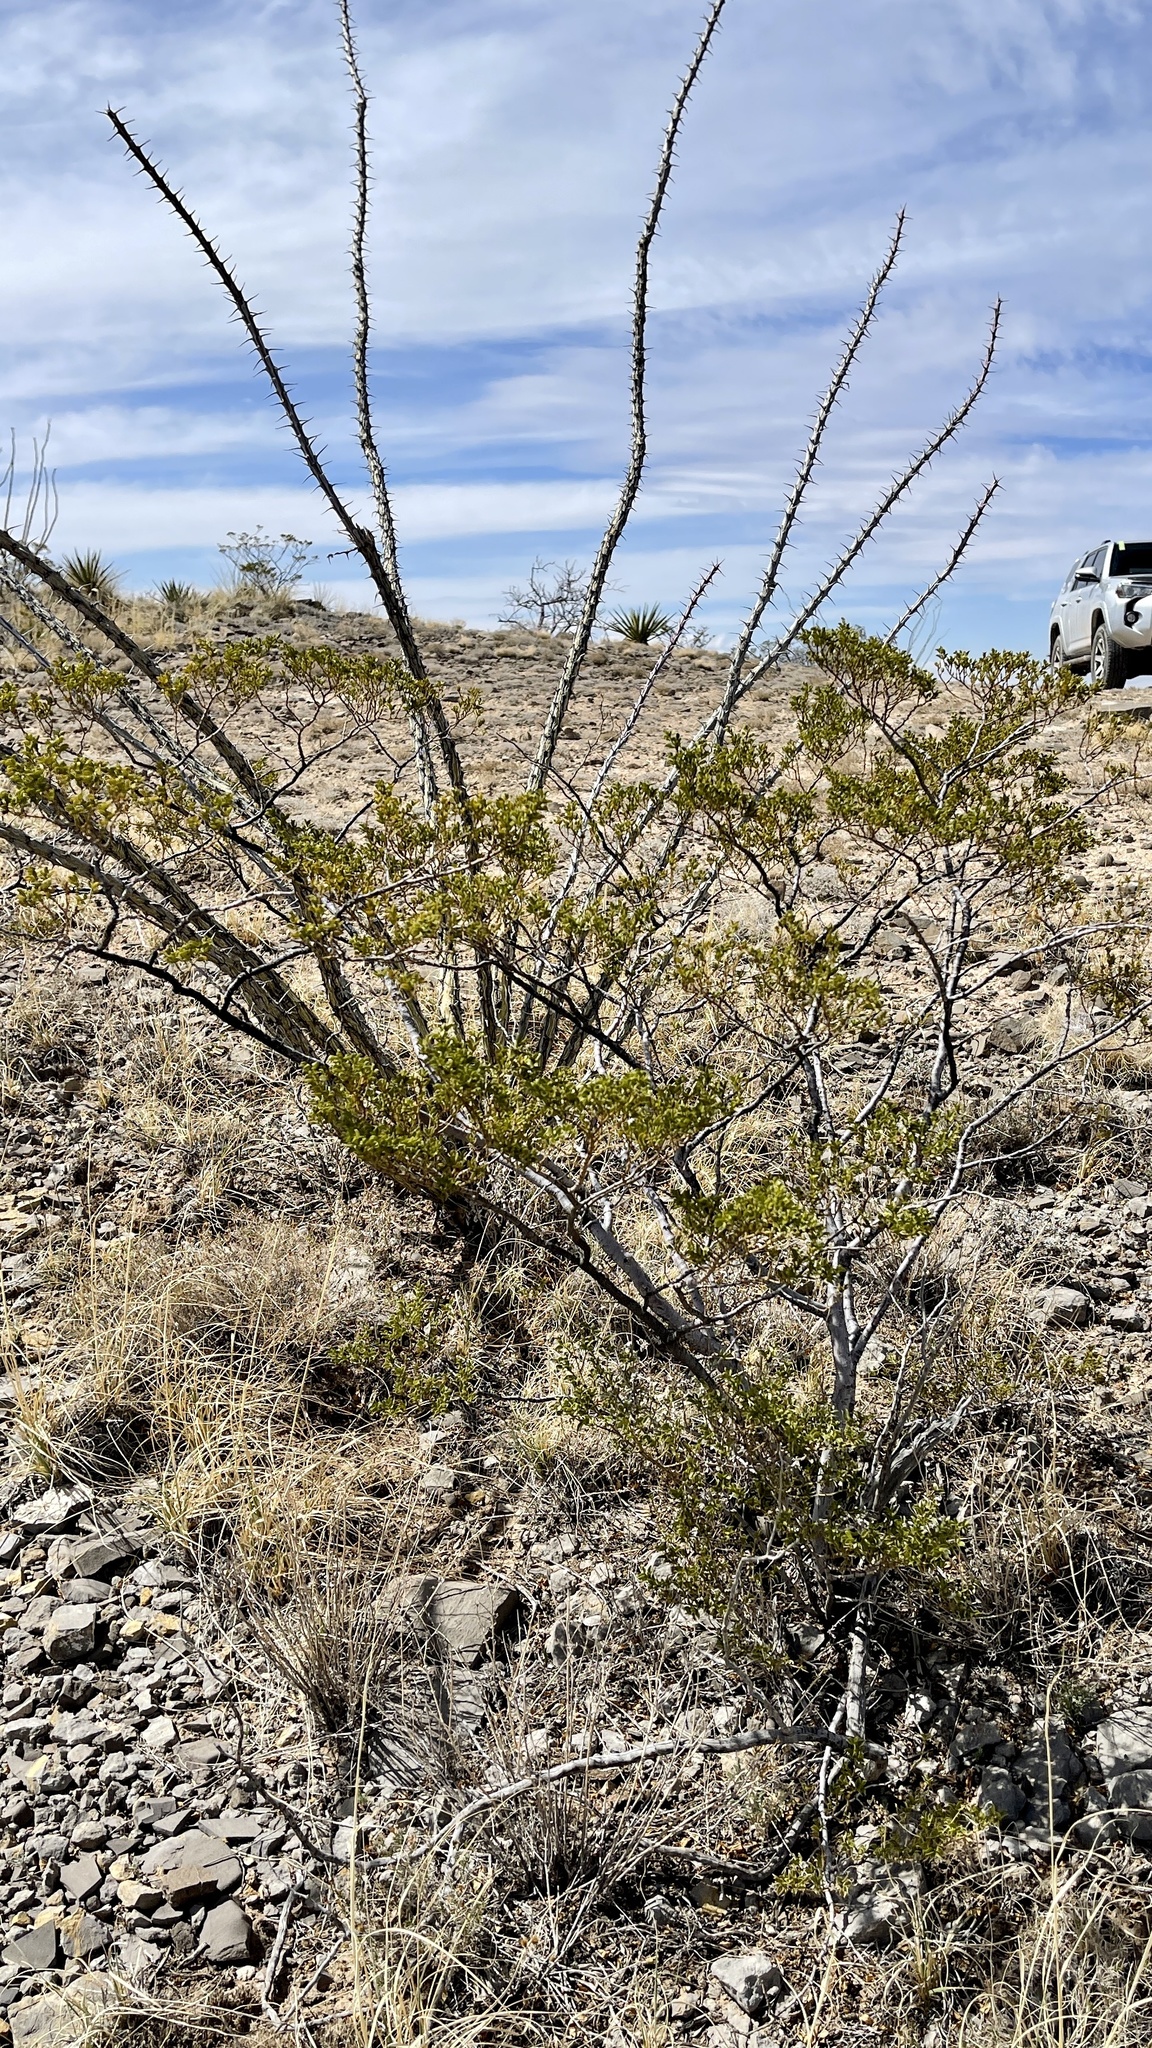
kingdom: Plantae
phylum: Tracheophyta
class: Magnoliopsida
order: Zygophyllales
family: Zygophyllaceae
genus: Larrea
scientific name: Larrea tridentata
